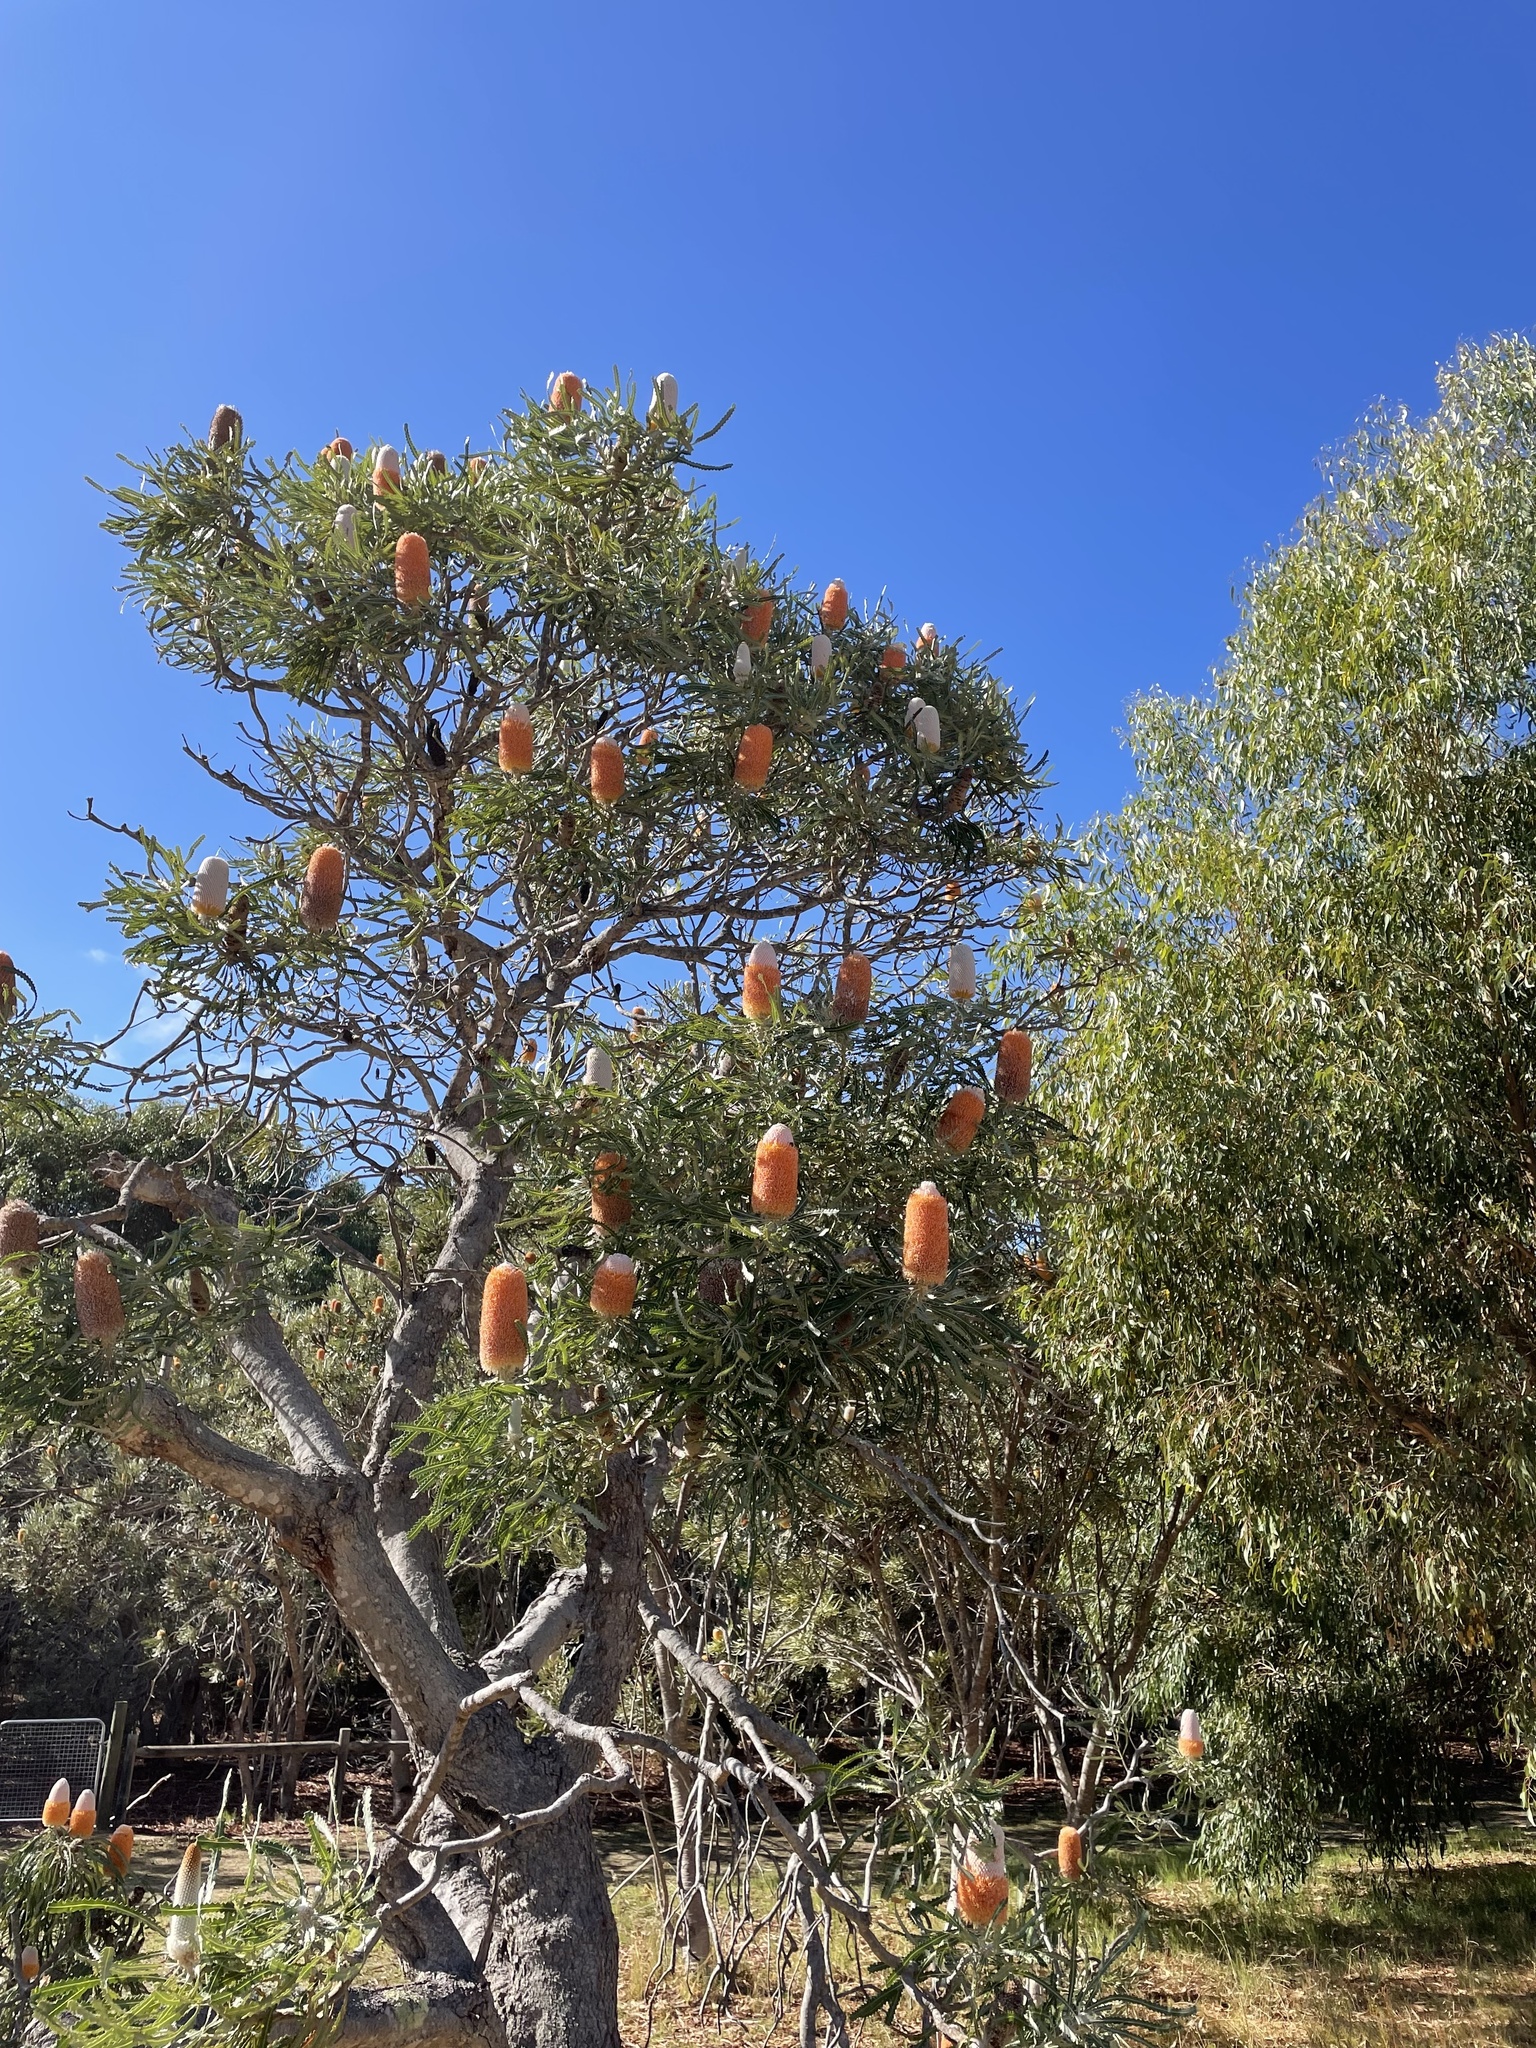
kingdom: Plantae
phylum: Tracheophyta
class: Magnoliopsida
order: Proteales
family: Proteaceae
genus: Banksia
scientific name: Banksia prionotes
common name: Acorn banksia
